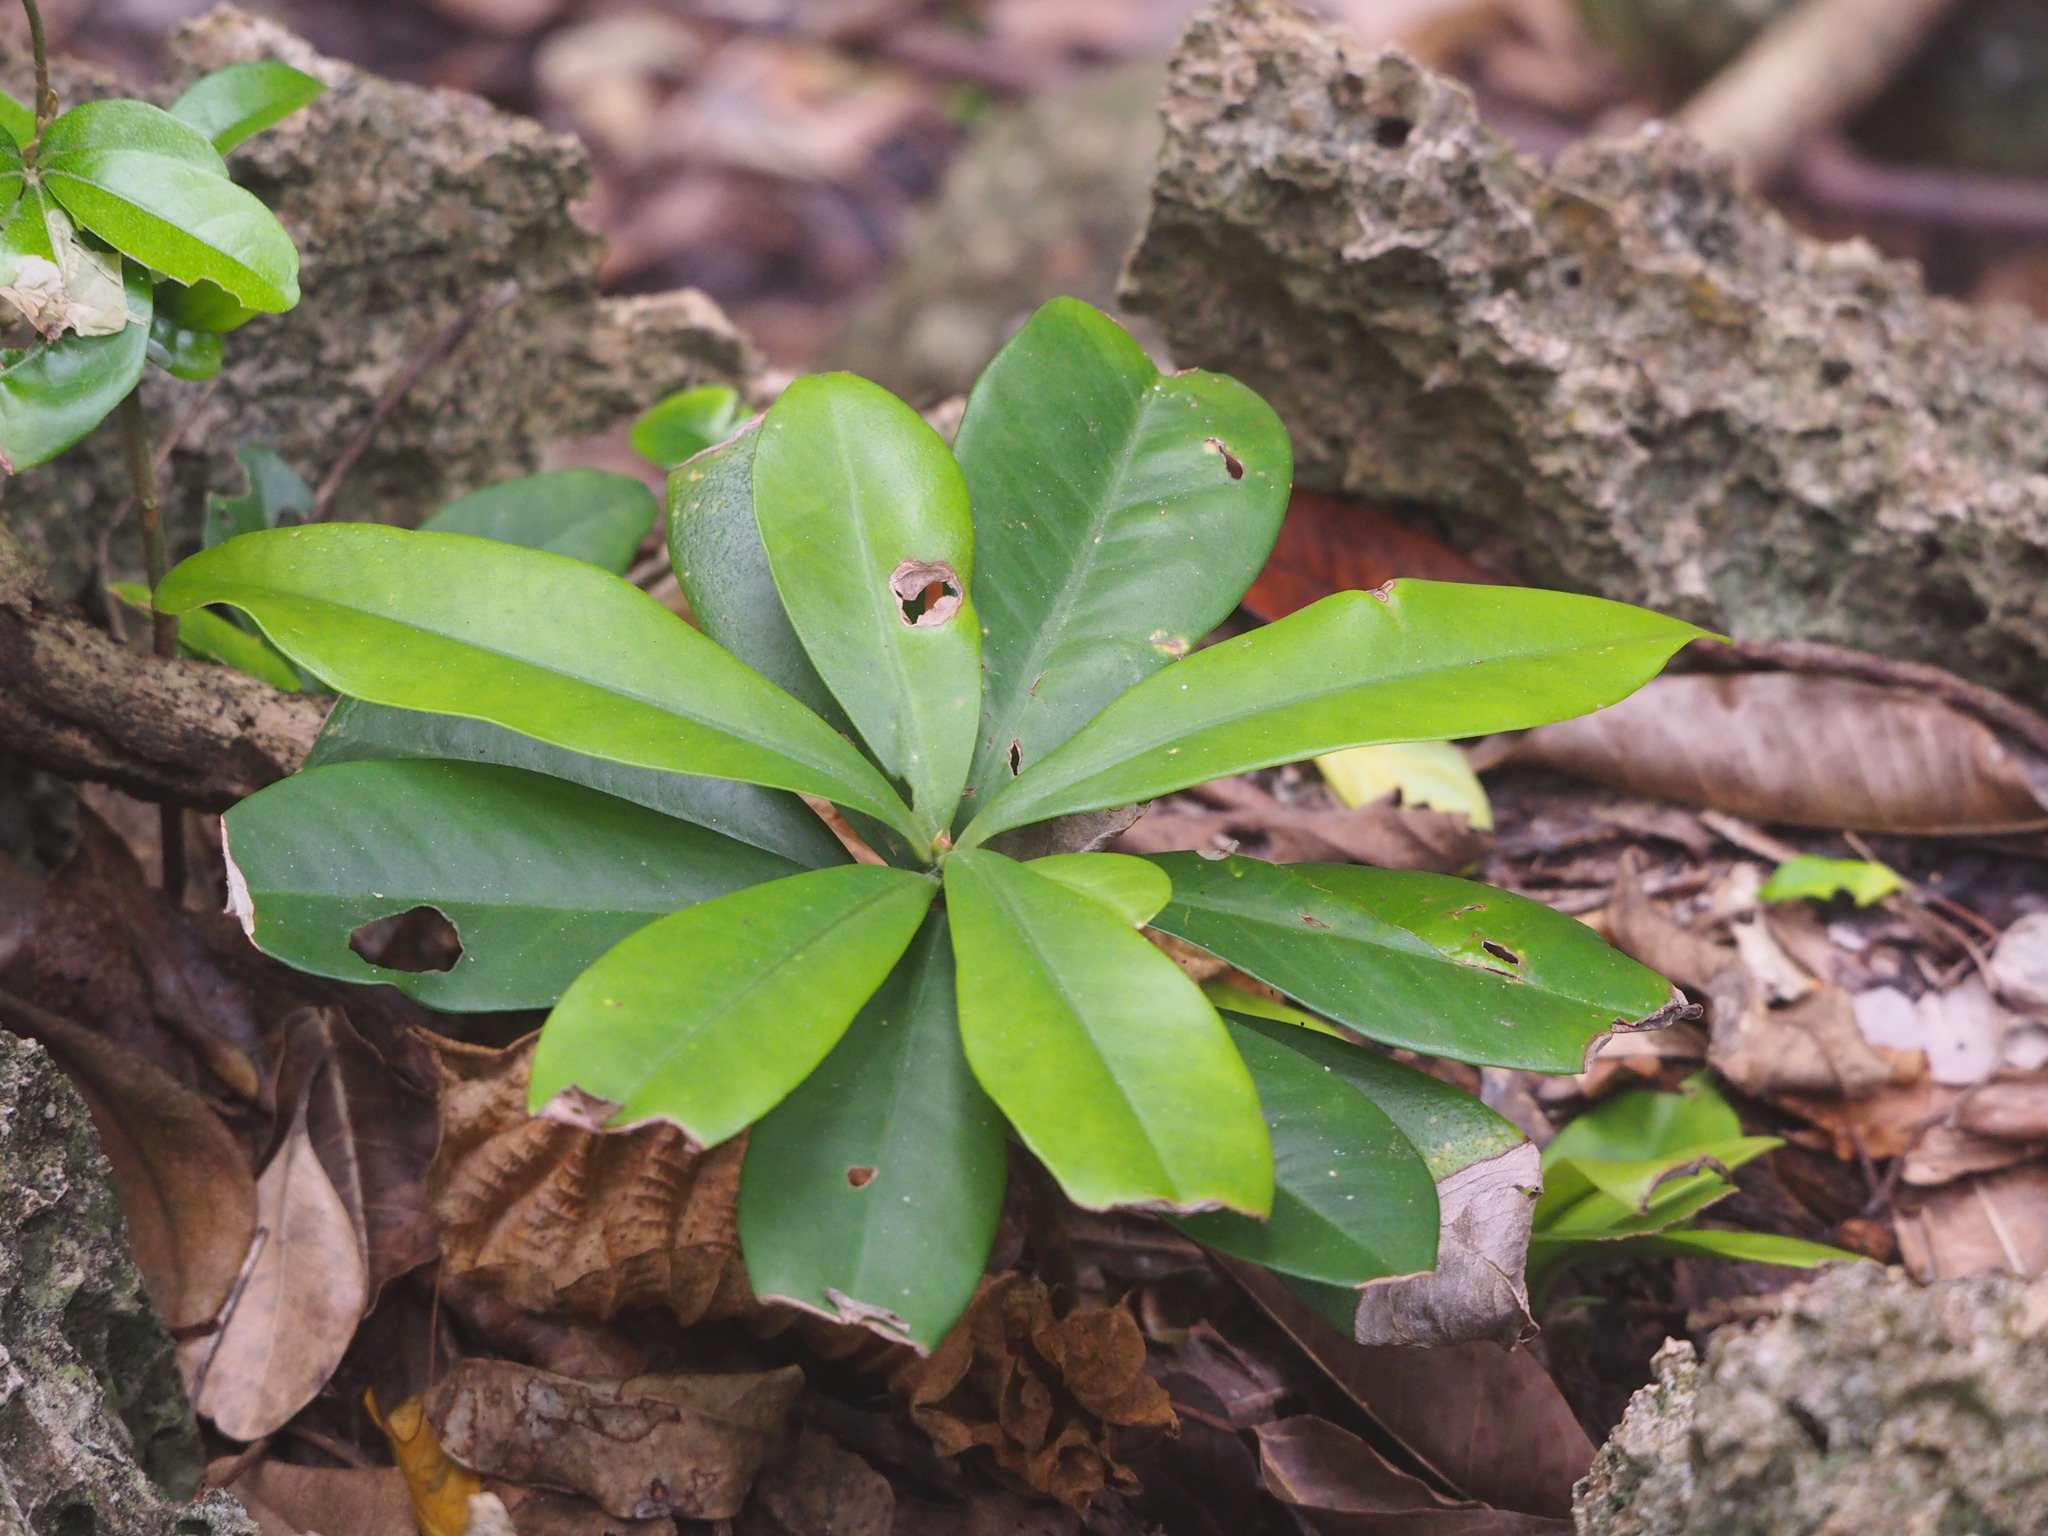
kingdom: Plantae
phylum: Tracheophyta
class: Magnoliopsida
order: Ericales
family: Primulaceae
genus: Ardisia
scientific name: Ardisia elliptica
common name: Shoebutton
